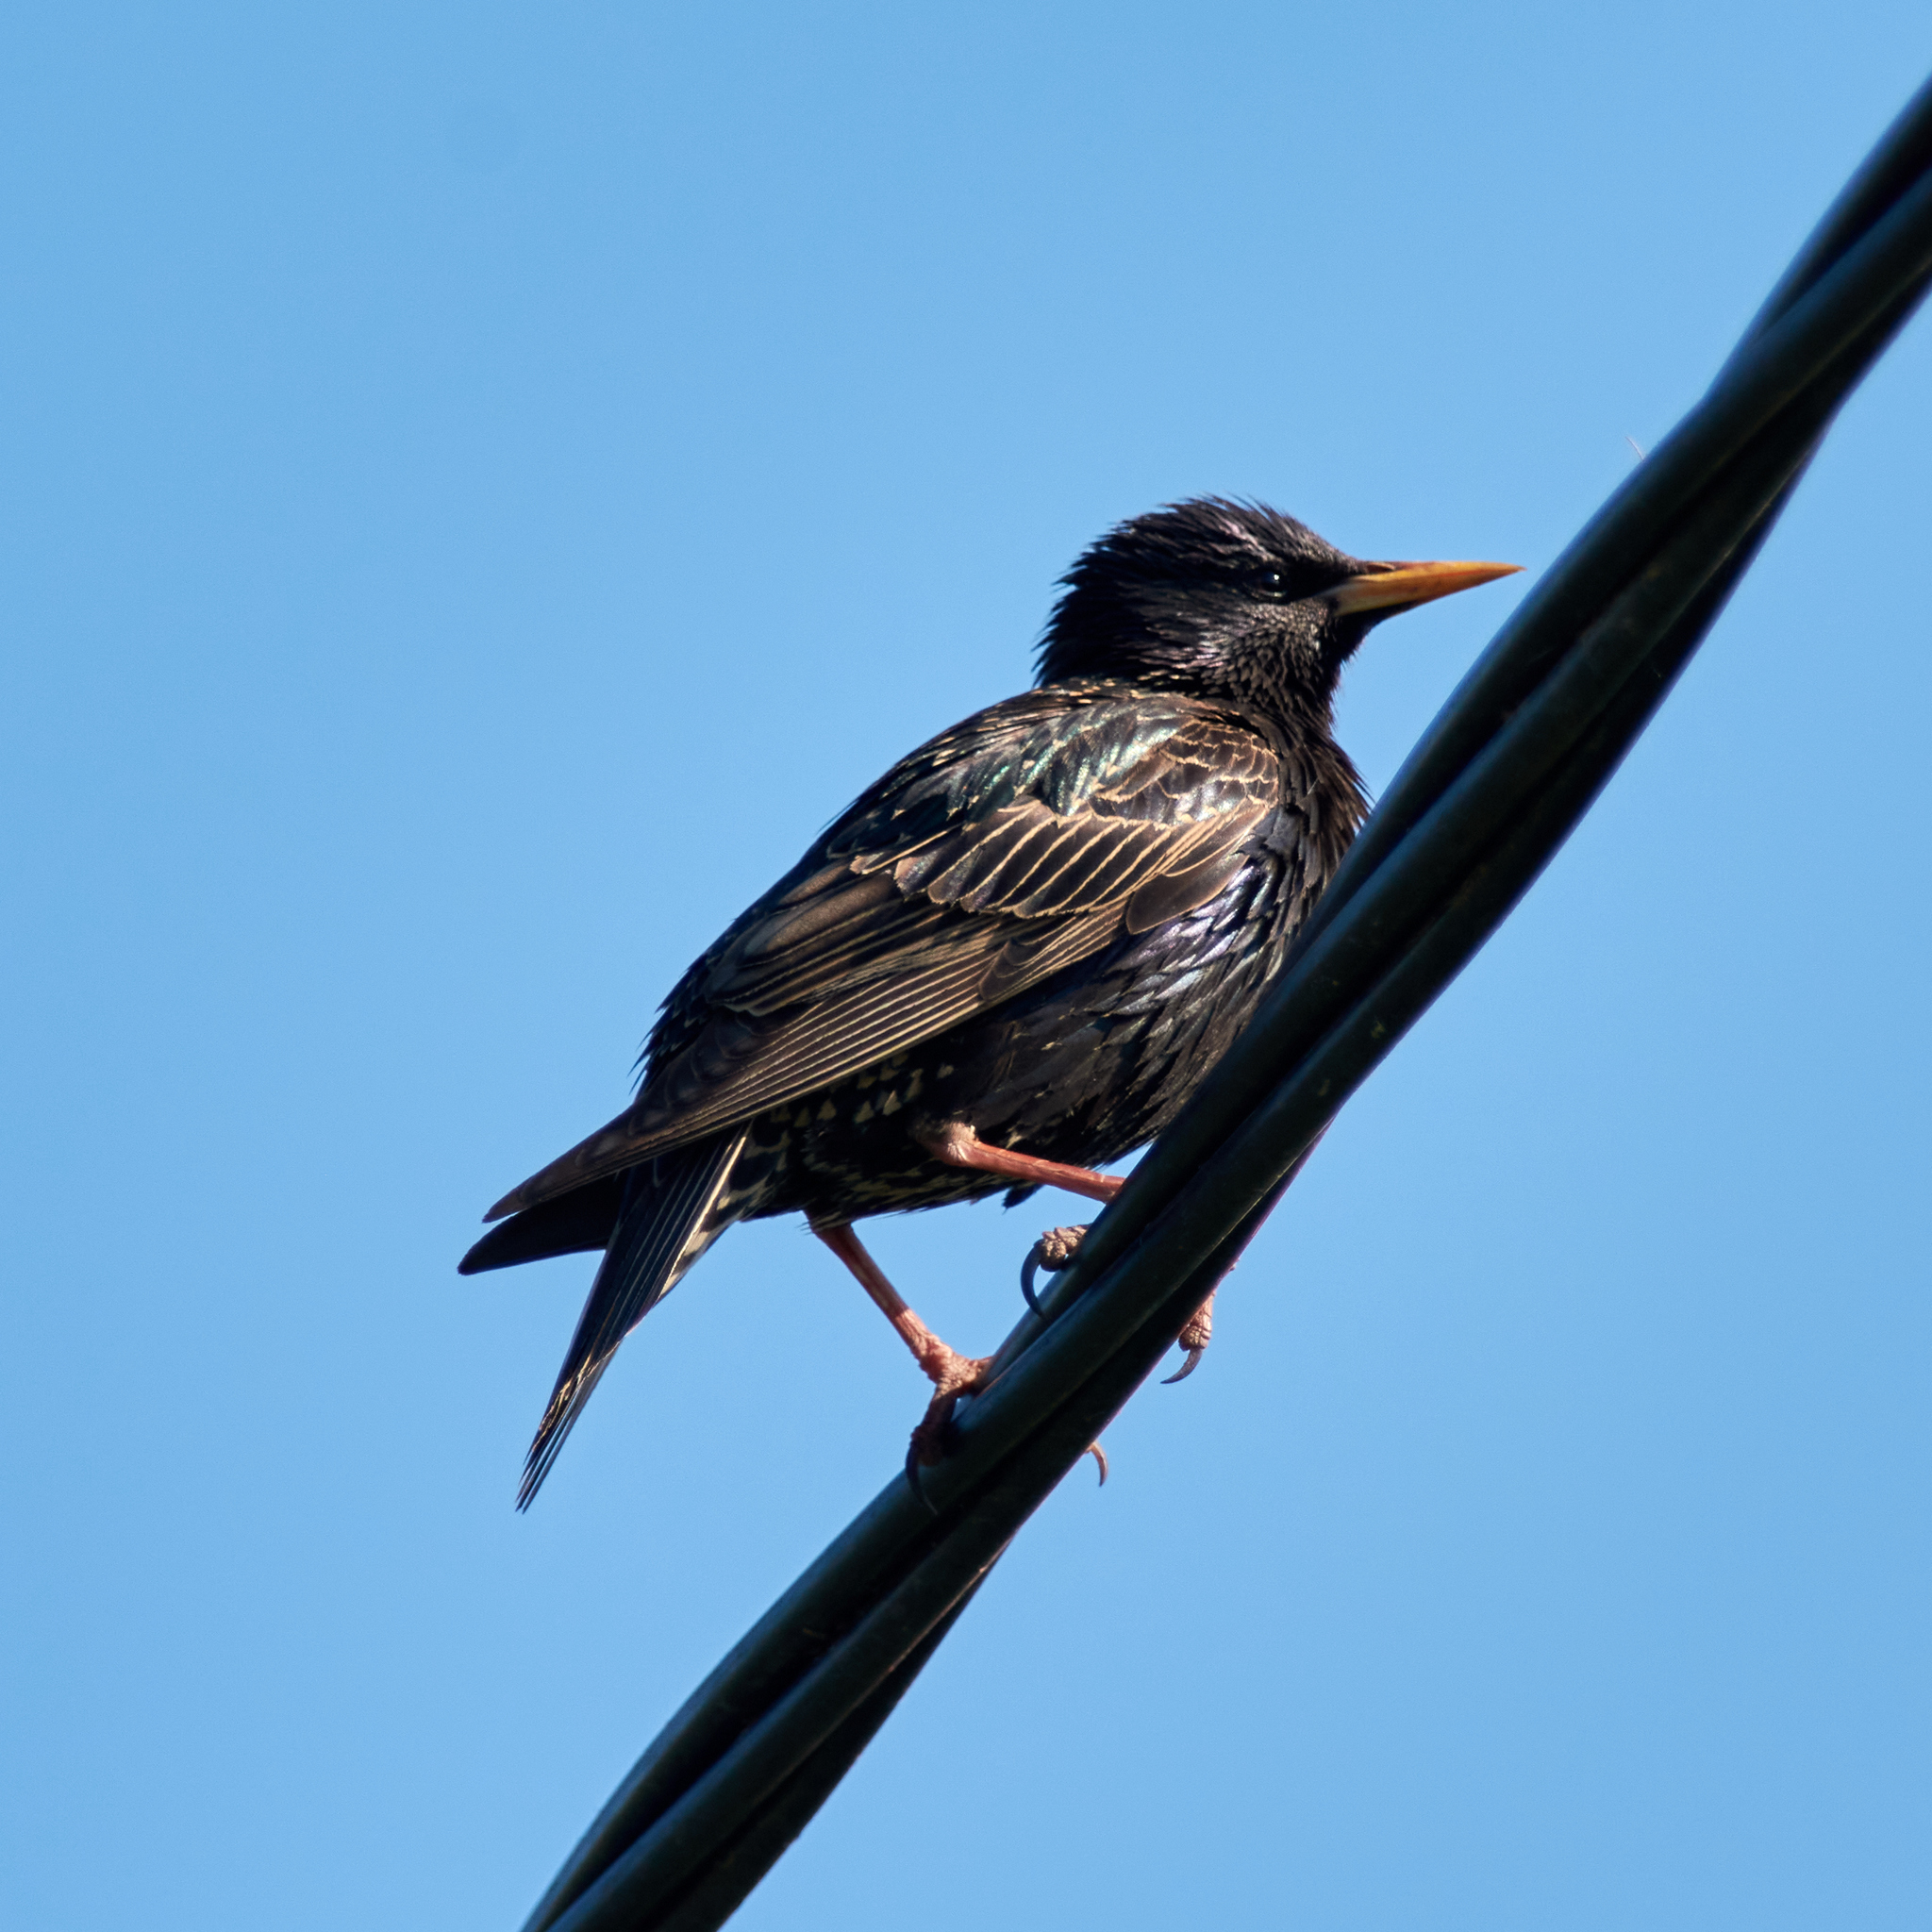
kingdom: Animalia
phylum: Chordata
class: Aves
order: Passeriformes
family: Sturnidae
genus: Sturnus
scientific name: Sturnus vulgaris
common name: Common starling
